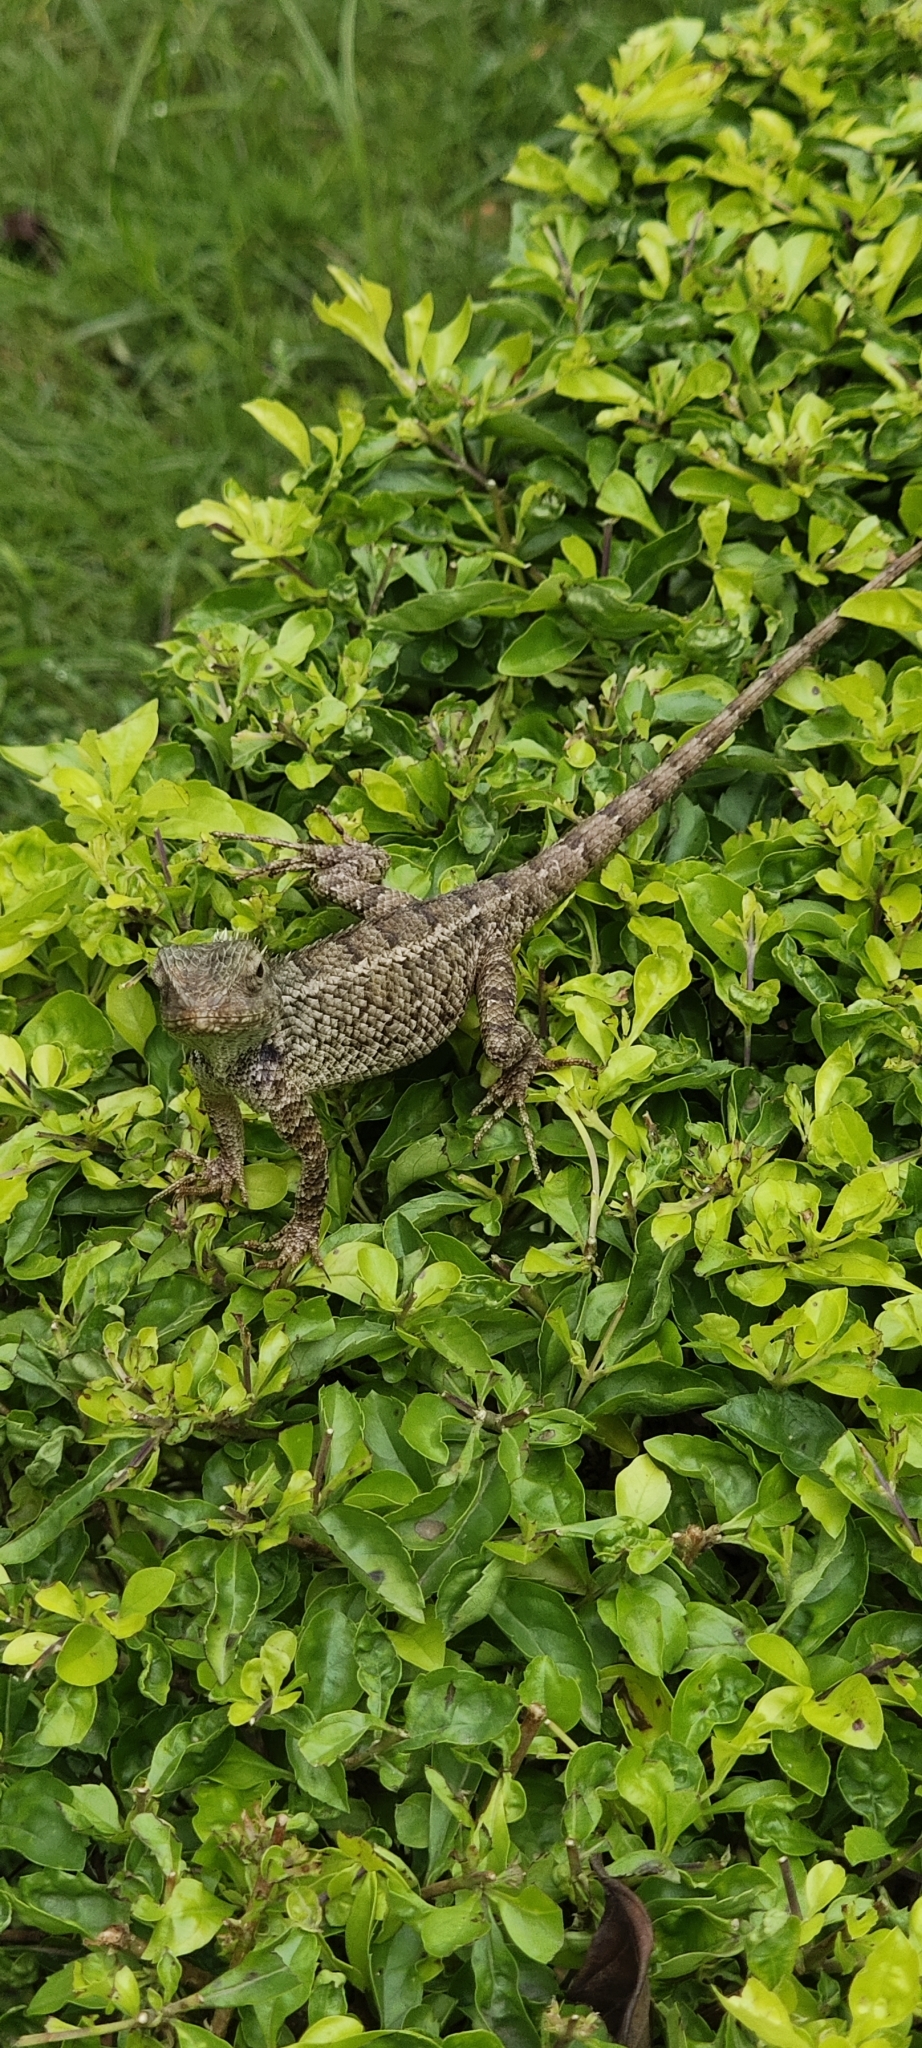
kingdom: Animalia
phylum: Chordata
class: Squamata
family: Agamidae
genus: Calotes
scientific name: Calotes versicolor
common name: Oriental garden lizard
